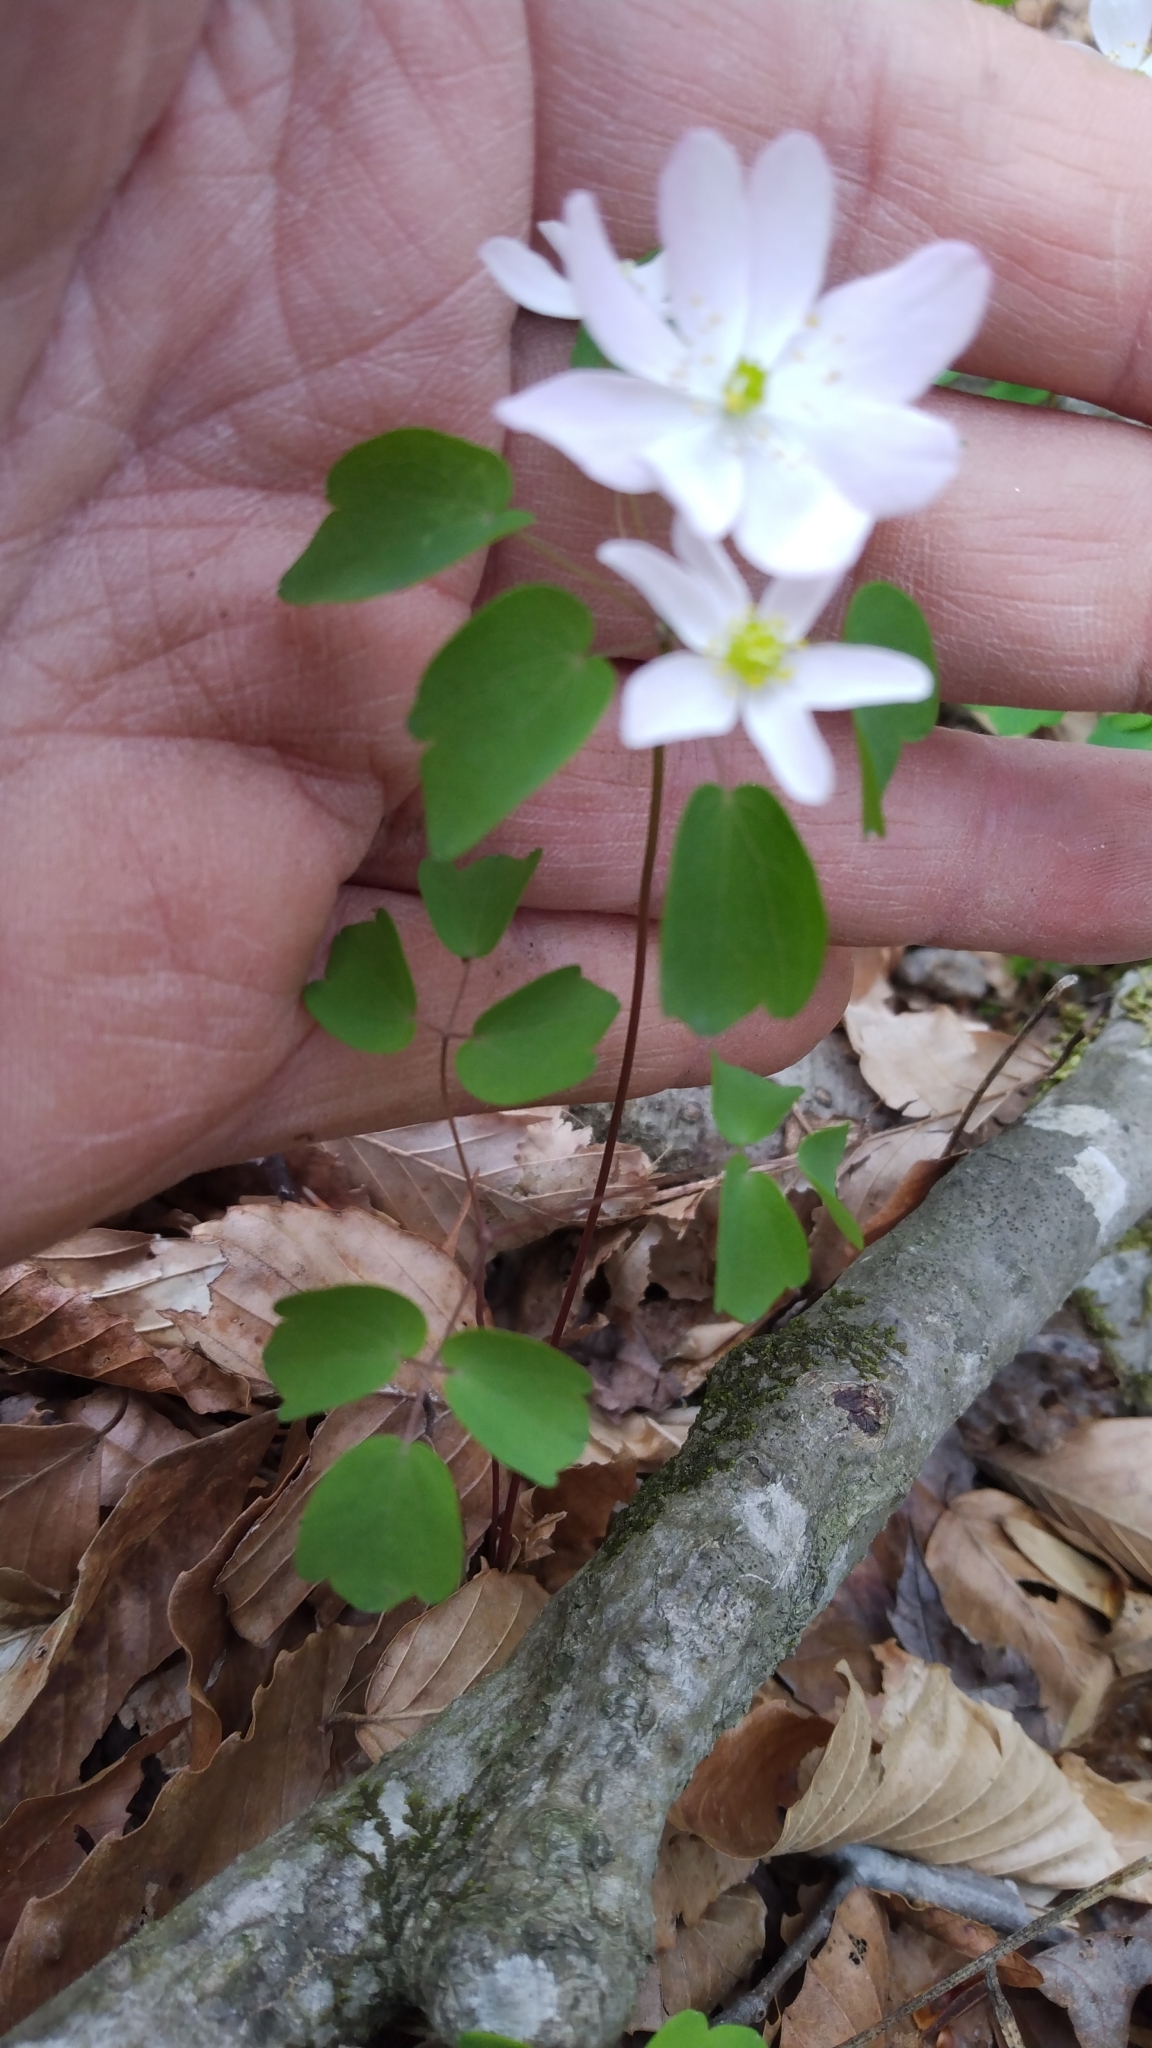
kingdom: Plantae
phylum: Tracheophyta
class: Magnoliopsida
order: Ranunculales
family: Ranunculaceae
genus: Thalictrum
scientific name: Thalictrum thalictroides
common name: Rue-anemone
